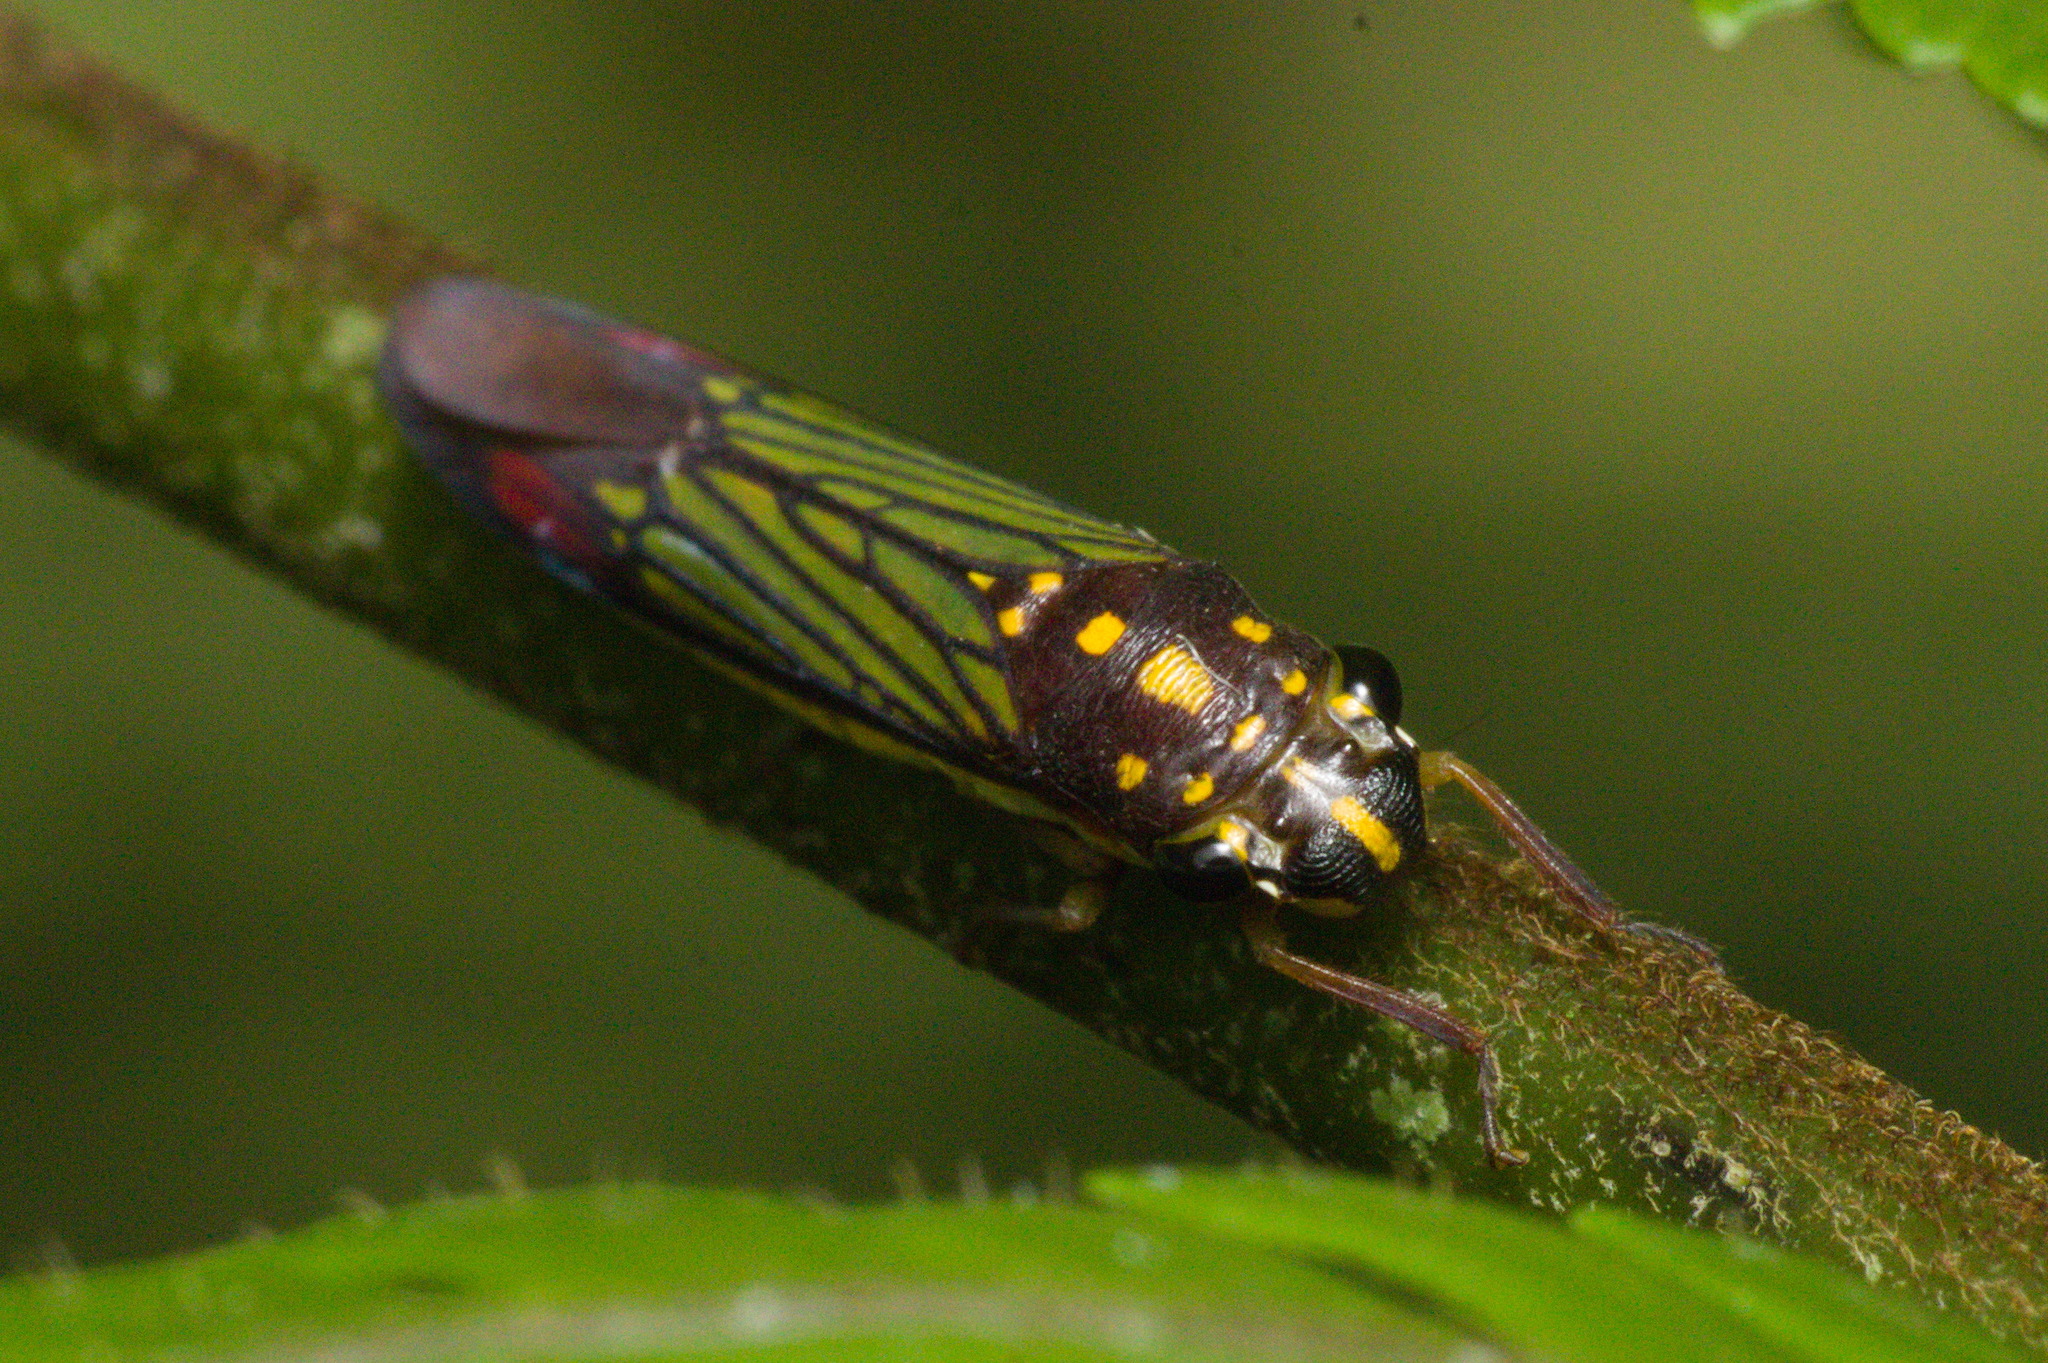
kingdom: Animalia
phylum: Arthropoda
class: Insecta
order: Hemiptera
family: Cicadellidae
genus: Egidemia
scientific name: Egidemia speculifera
